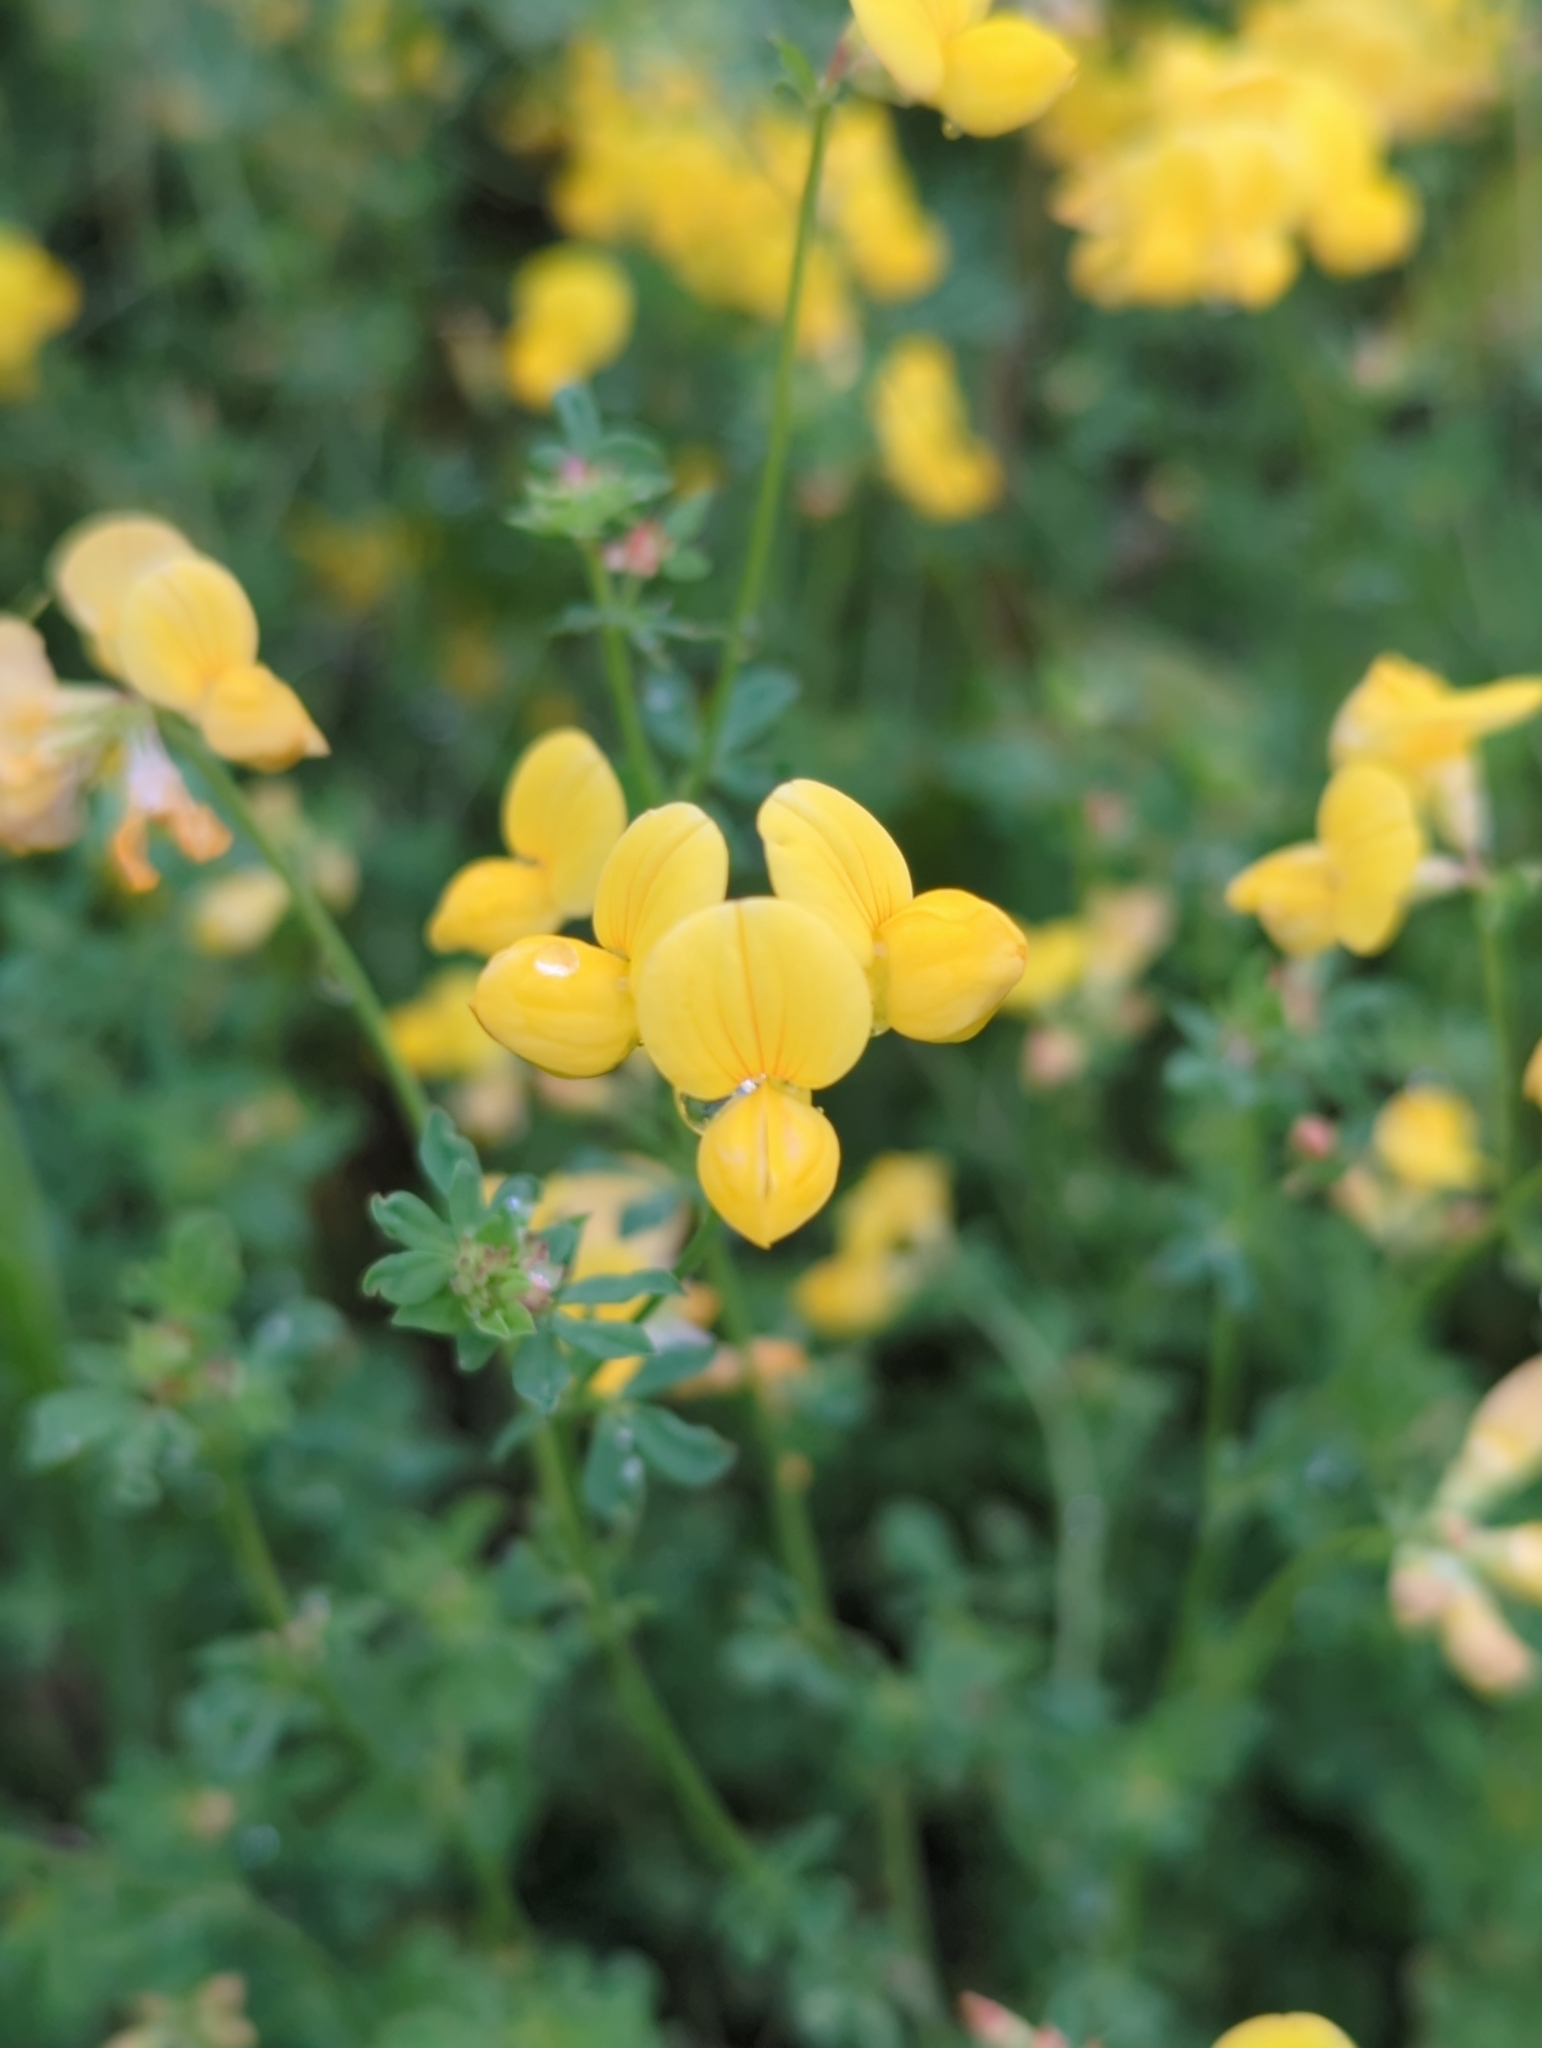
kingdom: Plantae
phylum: Tracheophyta
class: Magnoliopsida
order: Fabales
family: Fabaceae
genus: Lotus
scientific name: Lotus corniculatus
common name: Common bird's-foot-trefoil
